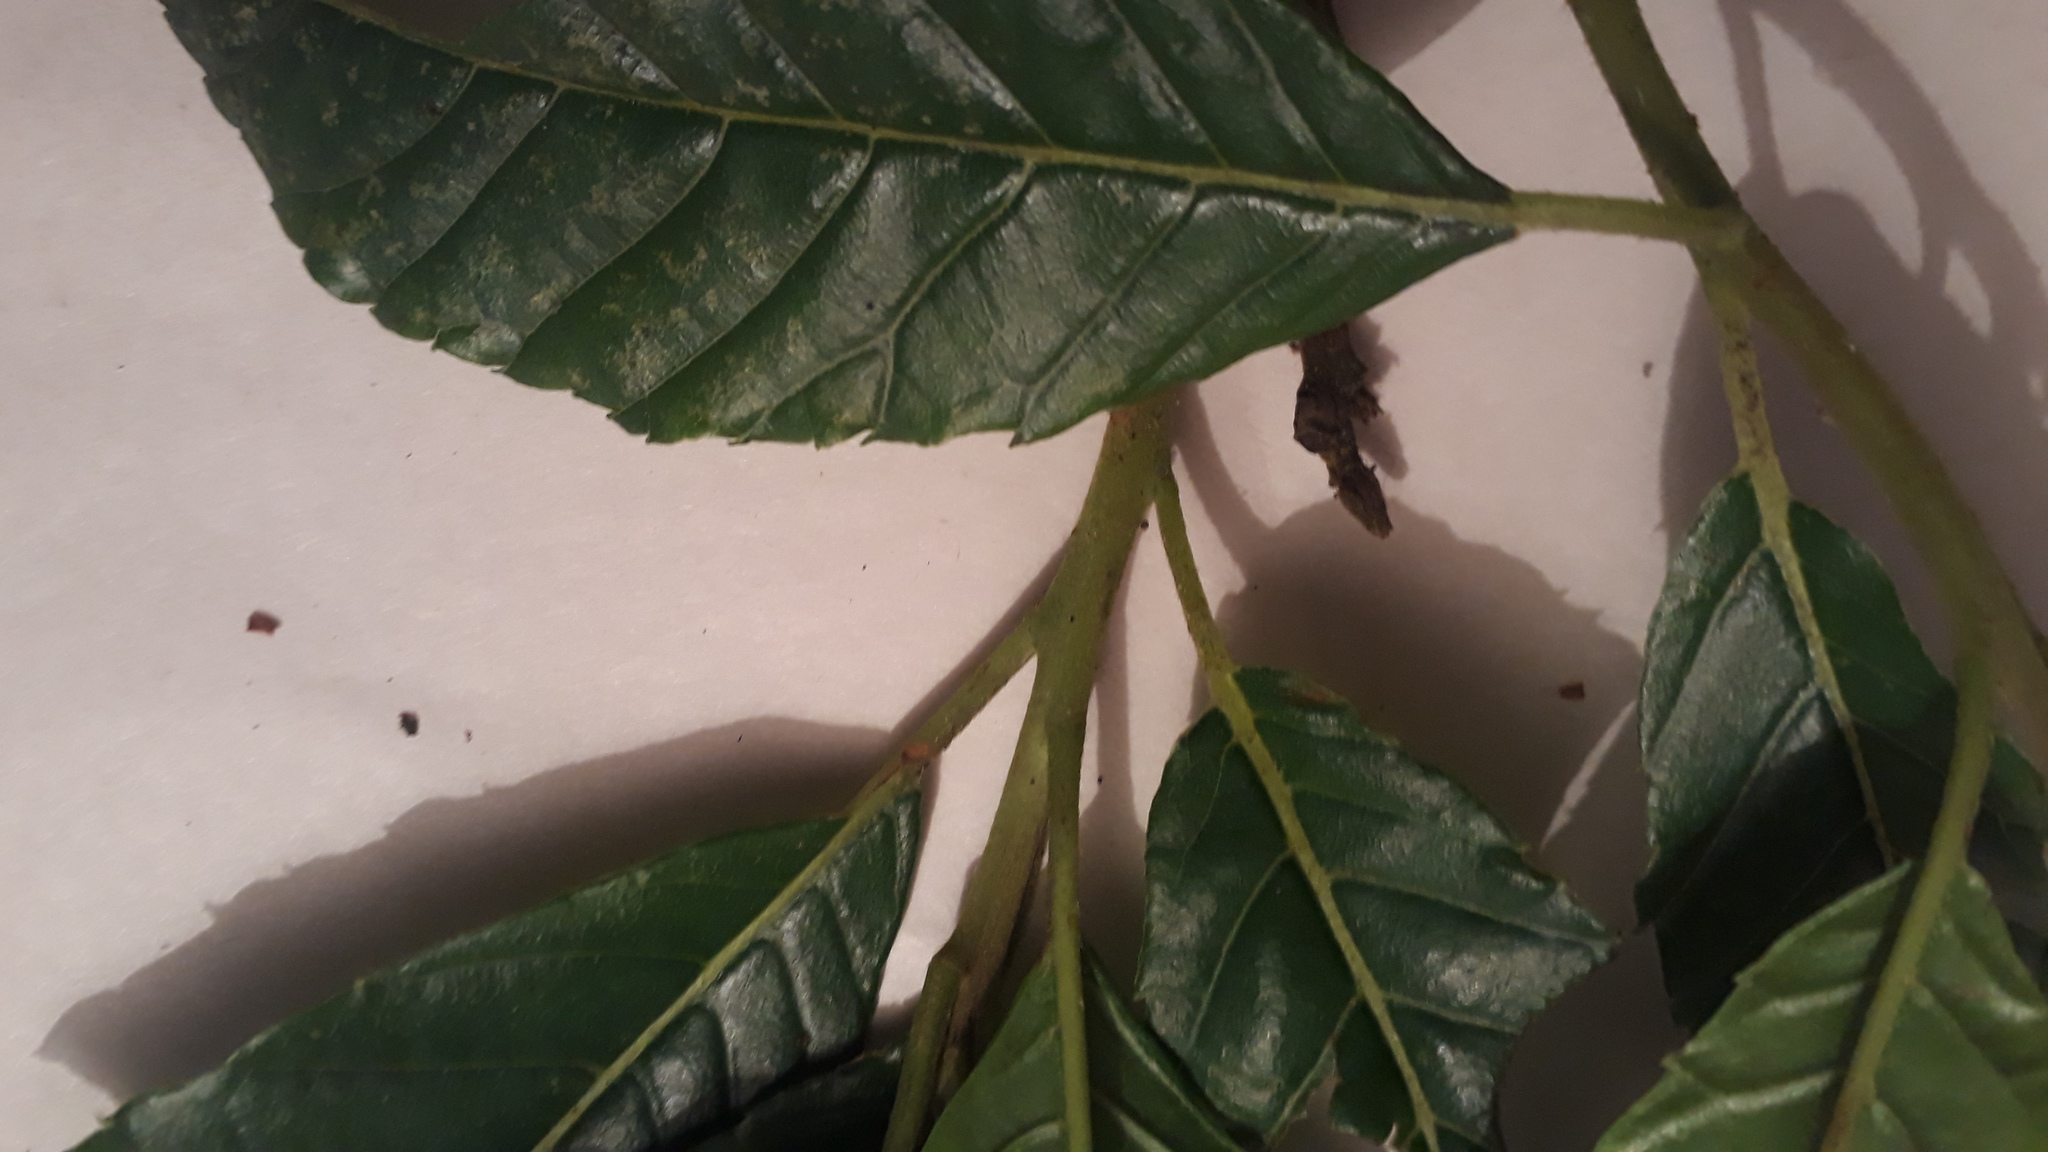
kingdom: Plantae
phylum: Tracheophyta
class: Magnoliopsida
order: Ericales
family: Clethraceae
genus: Clethra
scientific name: Clethra fagifolia
